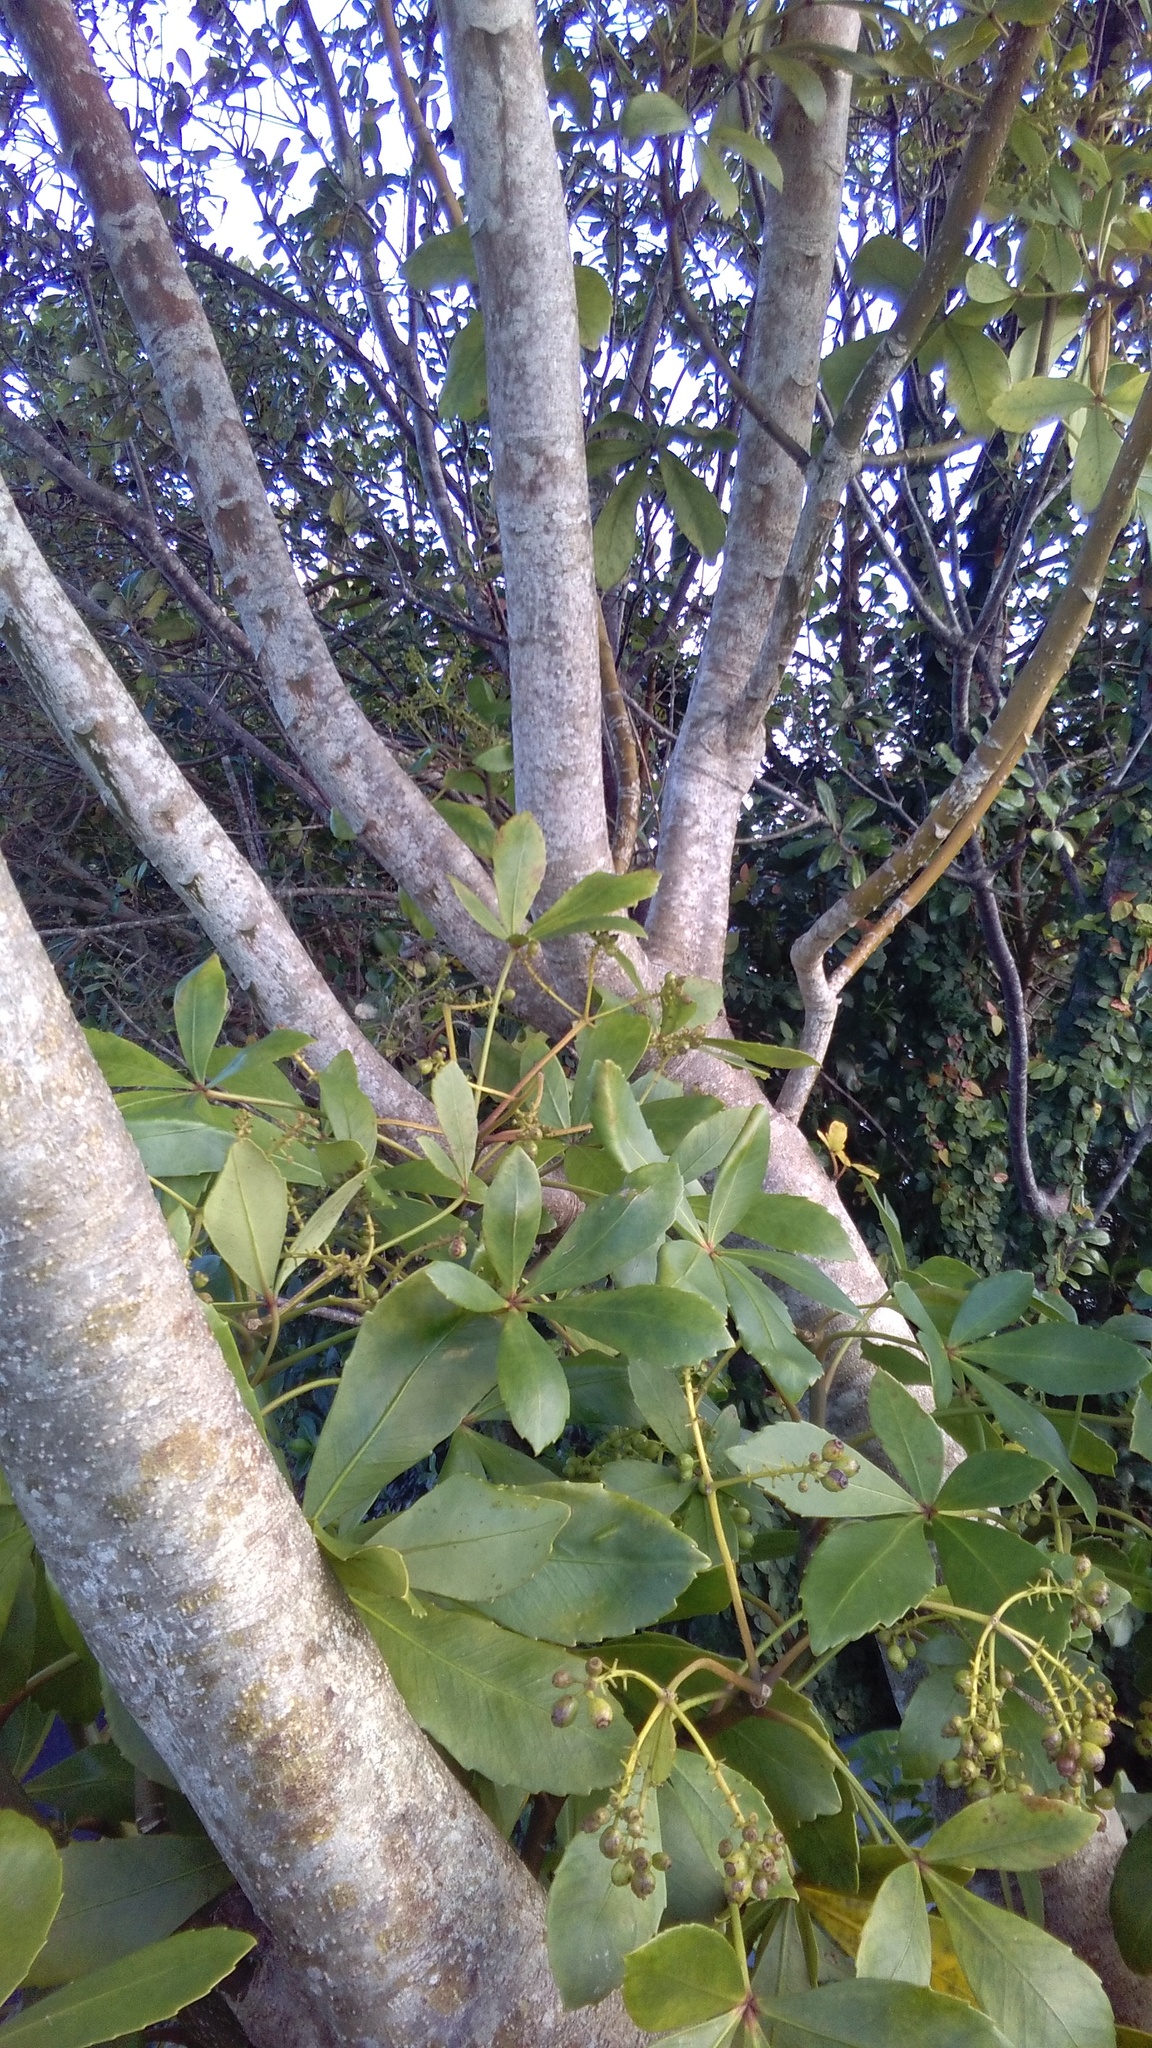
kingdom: Plantae
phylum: Tracheophyta
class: Magnoliopsida
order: Apiales
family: Araliaceae
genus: Pseudopanax
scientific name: Pseudopanax lessonii
